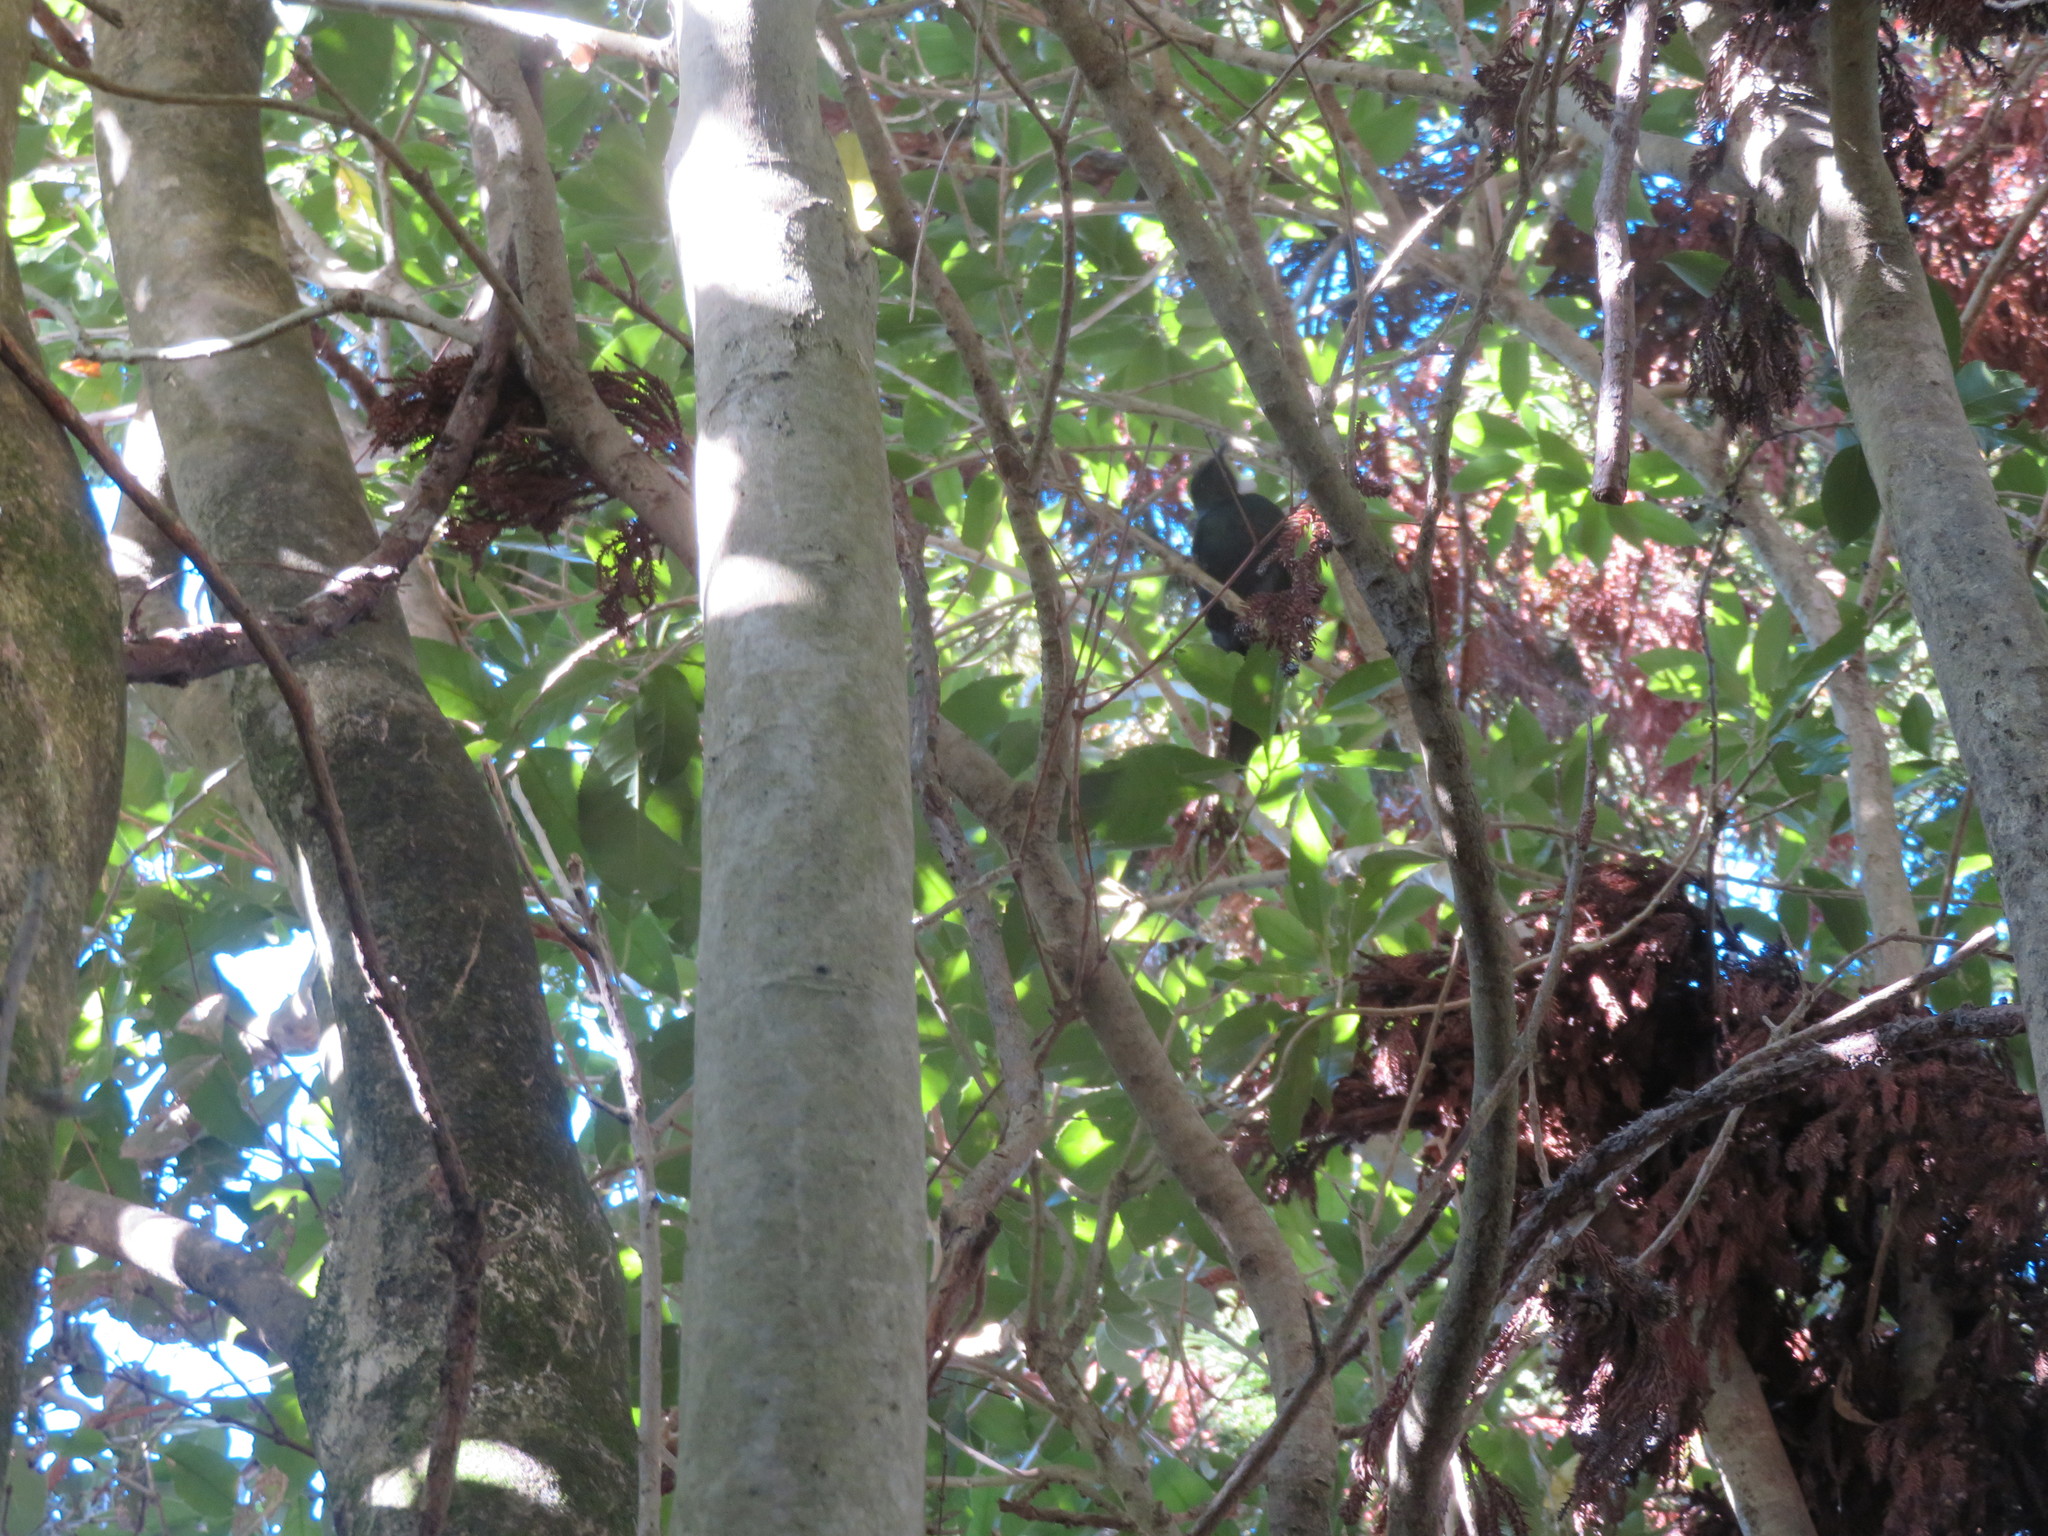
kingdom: Animalia
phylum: Chordata
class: Aves
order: Passeriformes
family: Meliphagidae
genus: Prosthemadera
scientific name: Prosthemadera novaeseelandiae
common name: Tui
